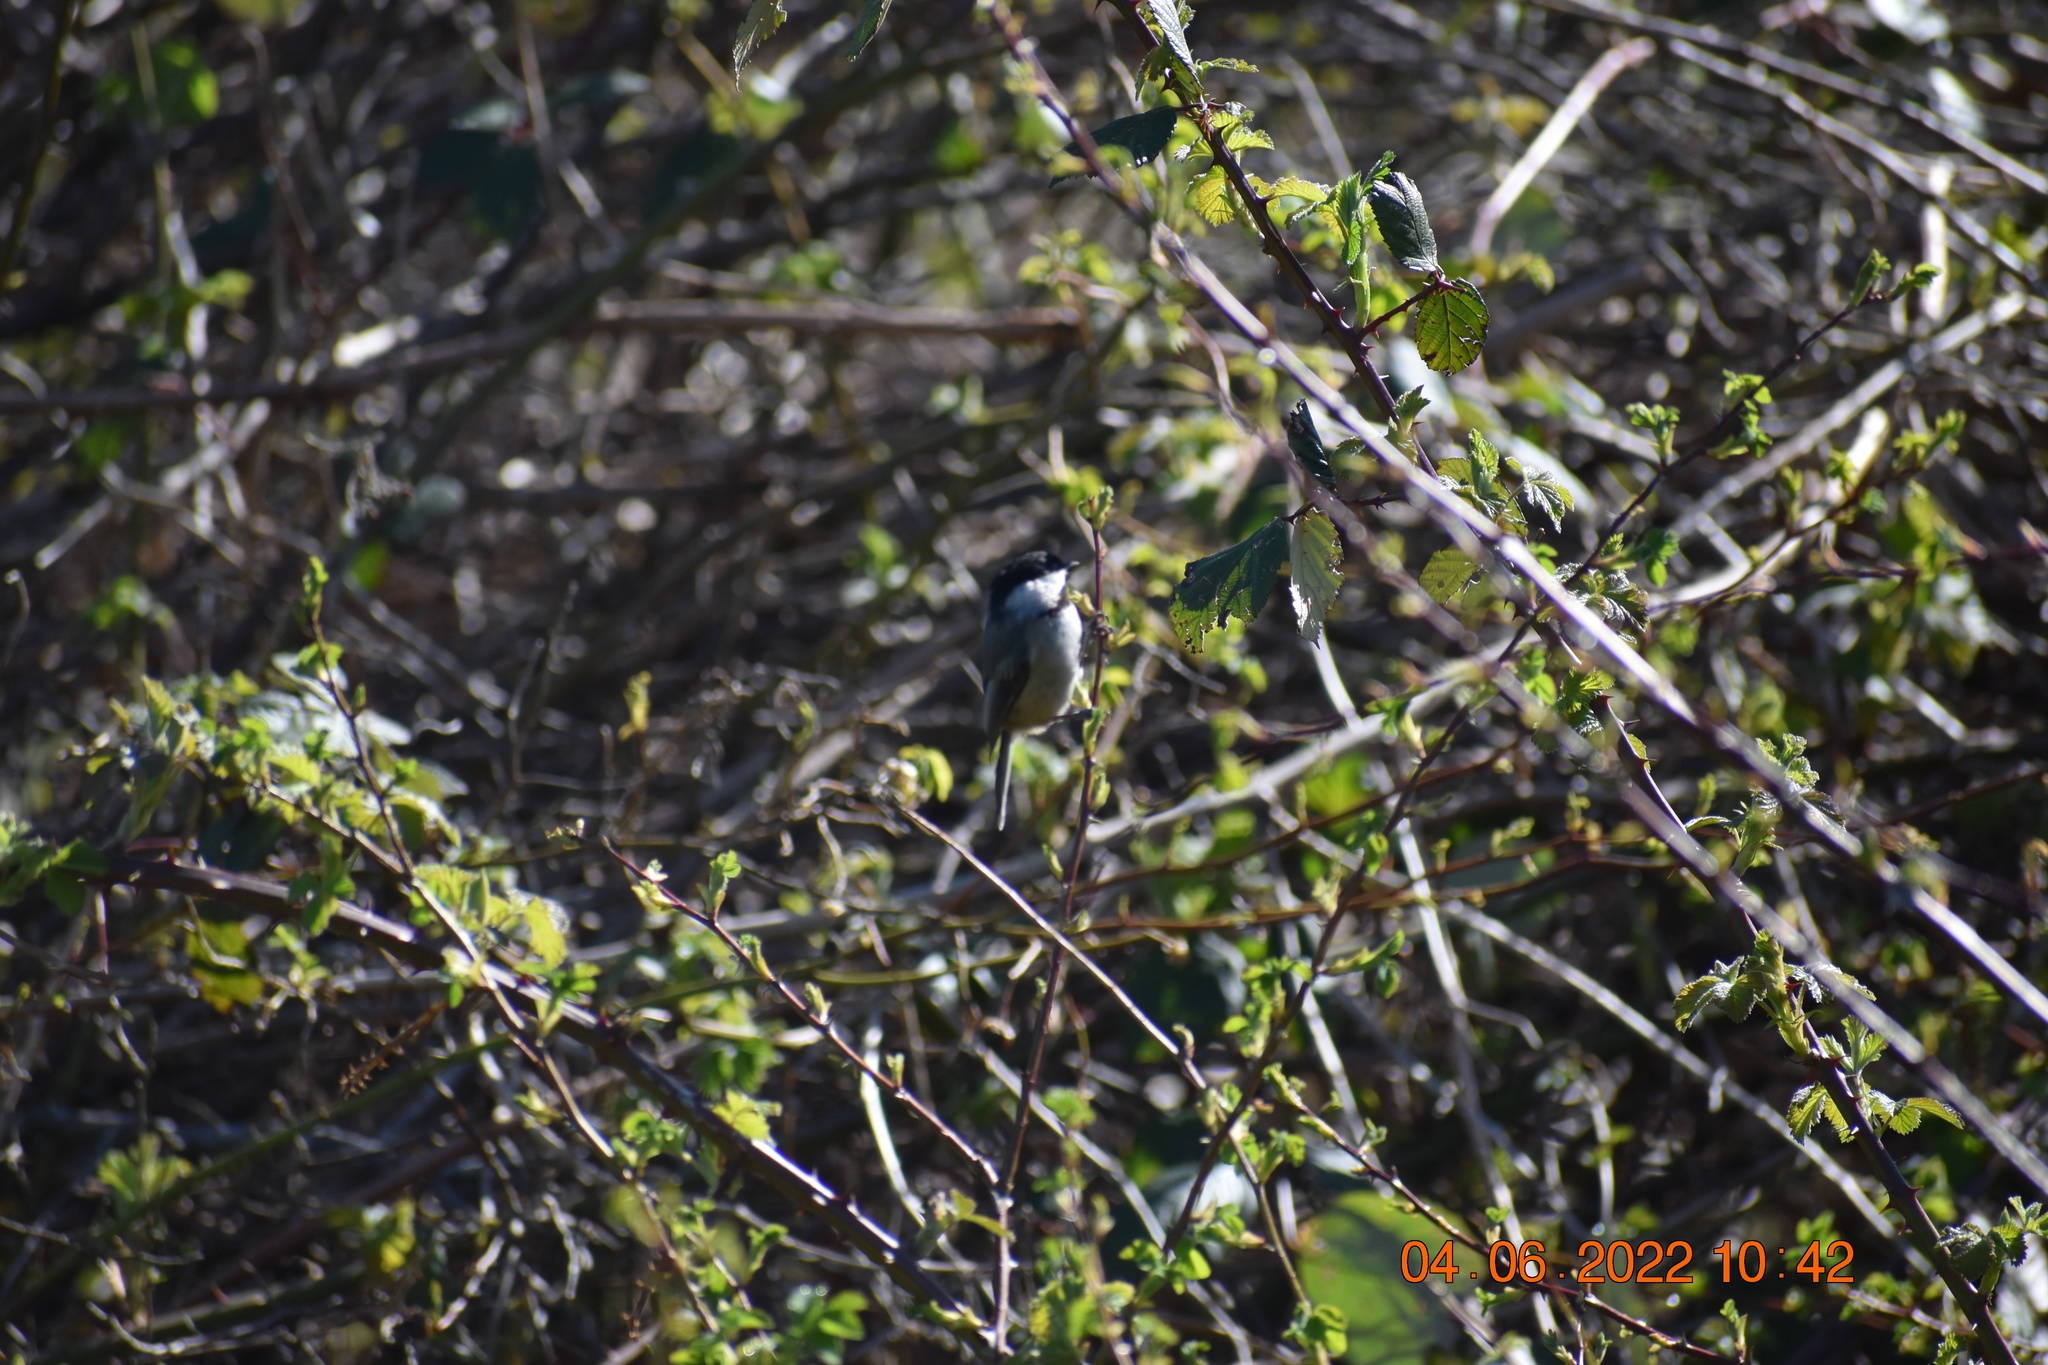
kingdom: Animalia
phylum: Chordata
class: Aves
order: Passeriformes
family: Paridae
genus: Poecile
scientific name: Poecile atricapillus
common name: Black-capped chickadee
